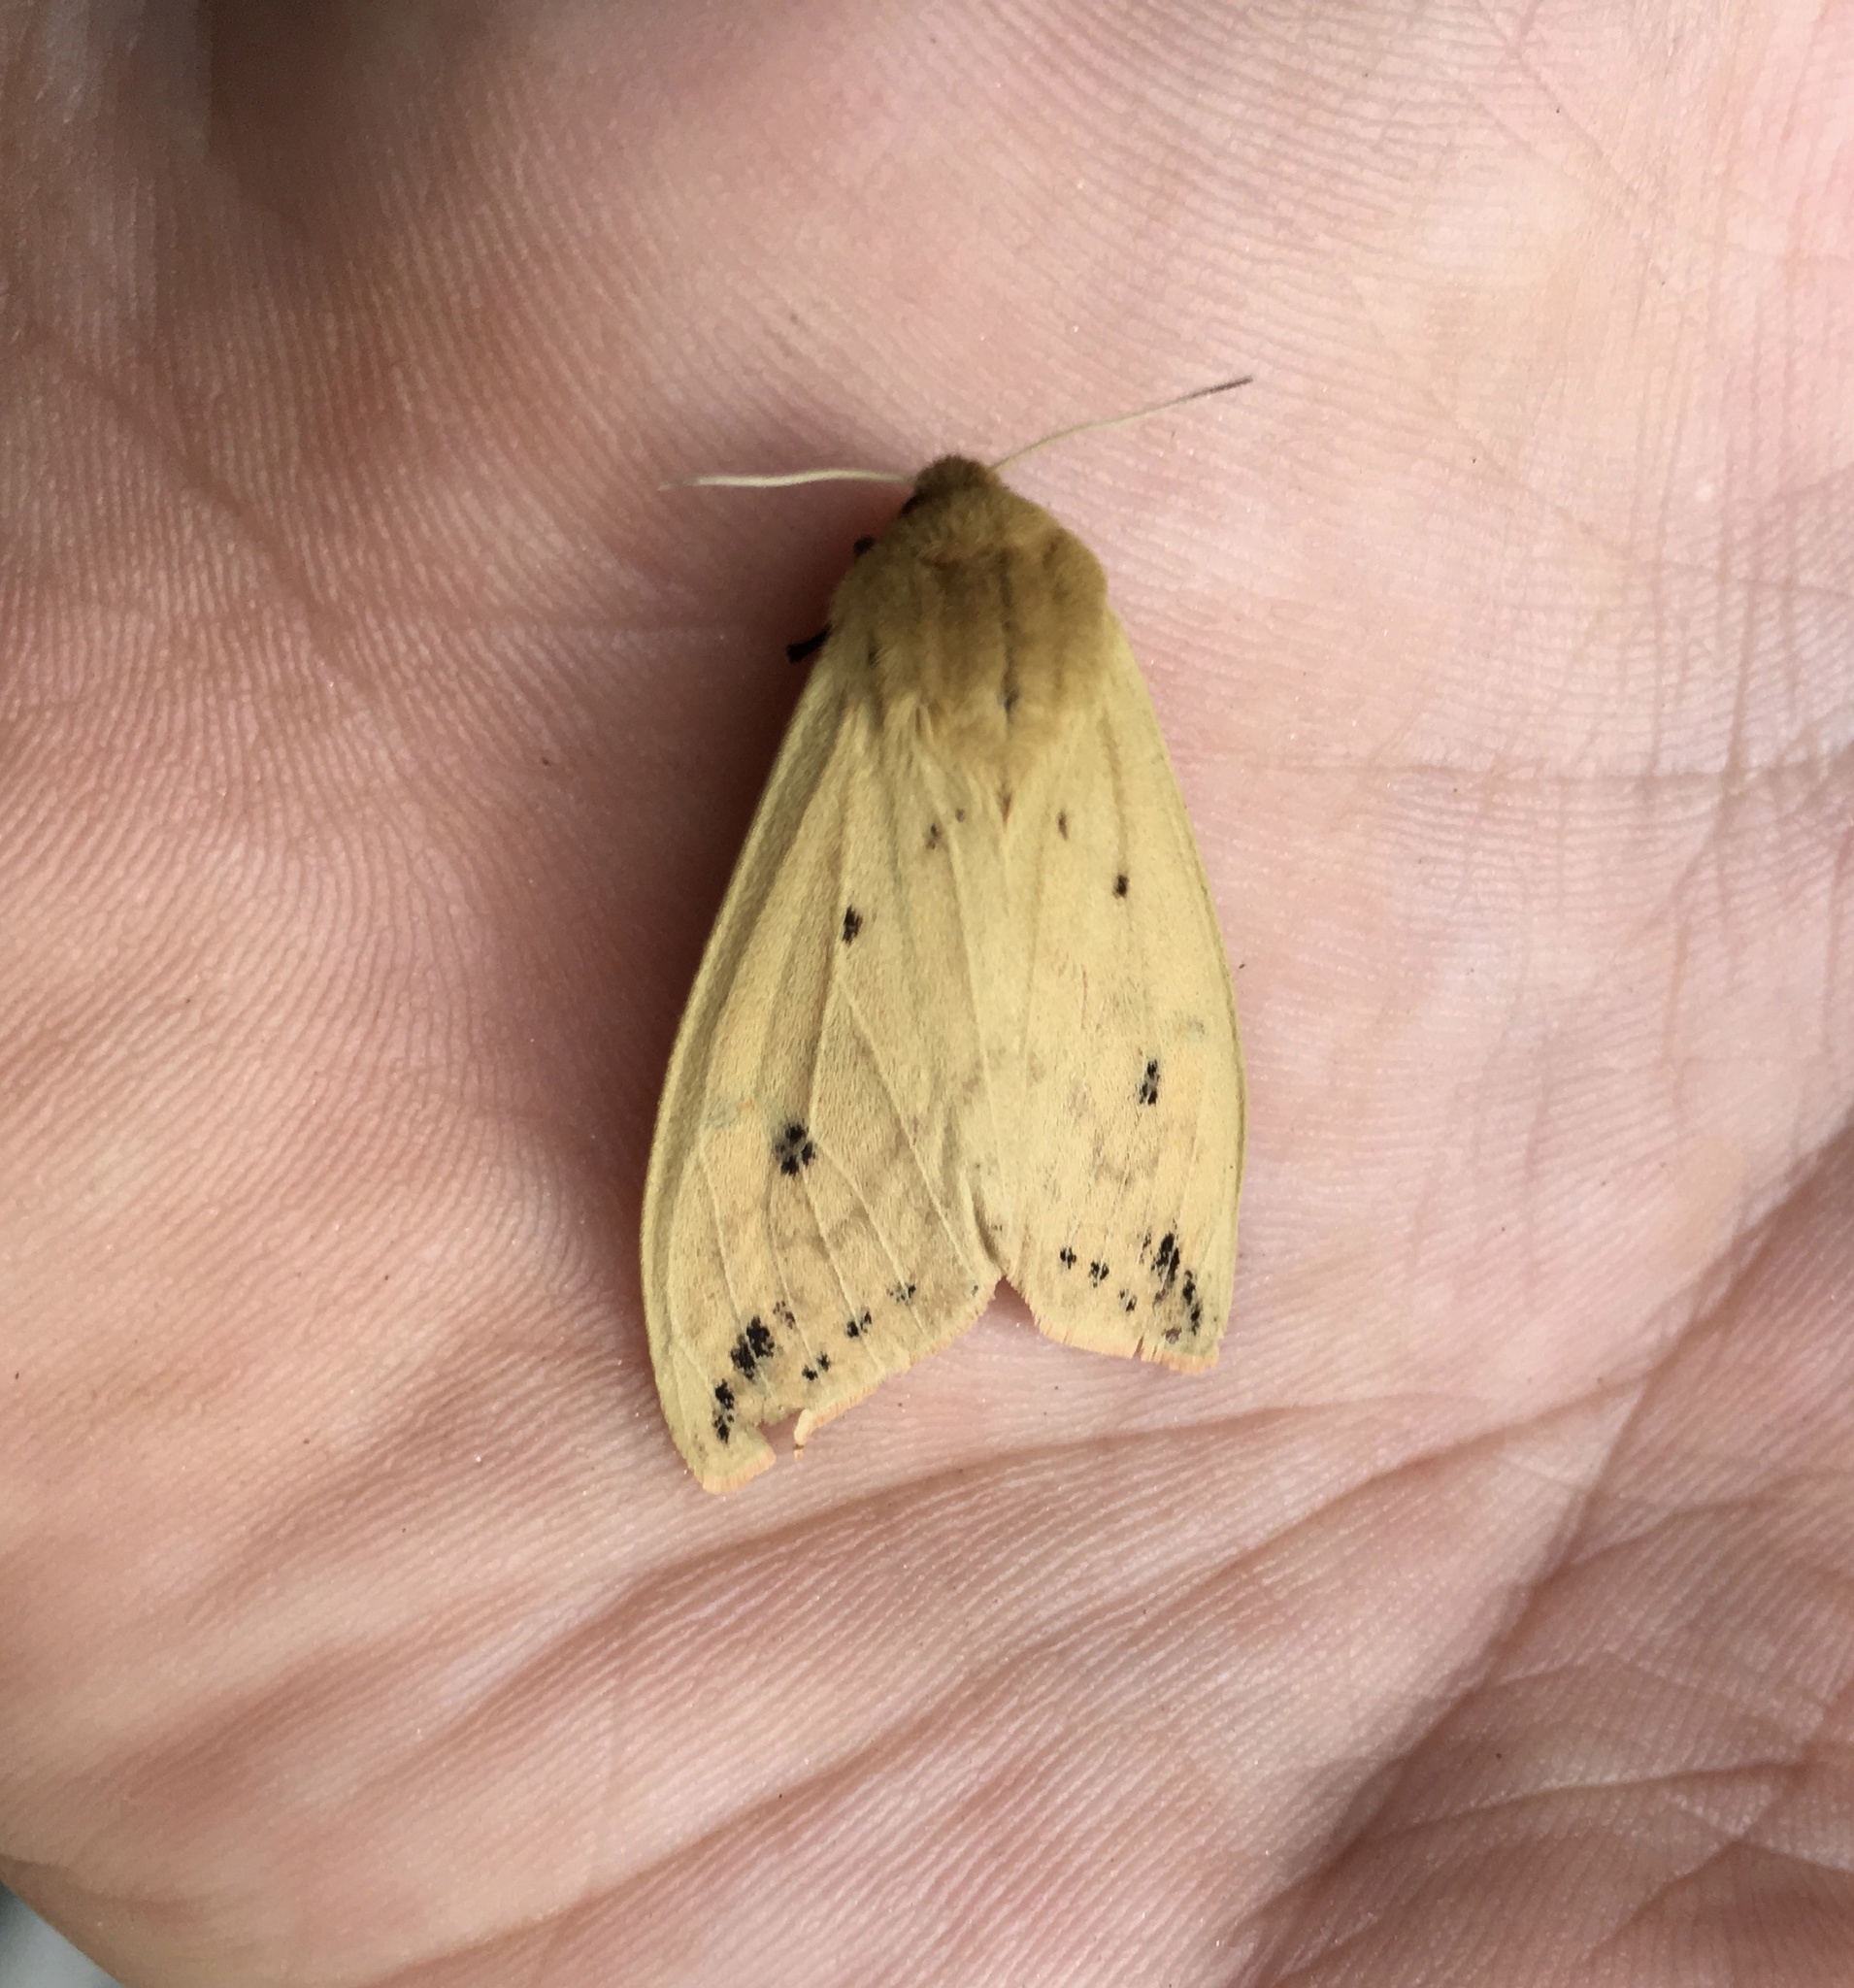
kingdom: Animalia
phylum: Arthropoda
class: Insecta
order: Lepidoptera
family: Erebidae
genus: Pyrrharctia
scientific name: Pyrrharctia isabella
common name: Isabella tiger moth
